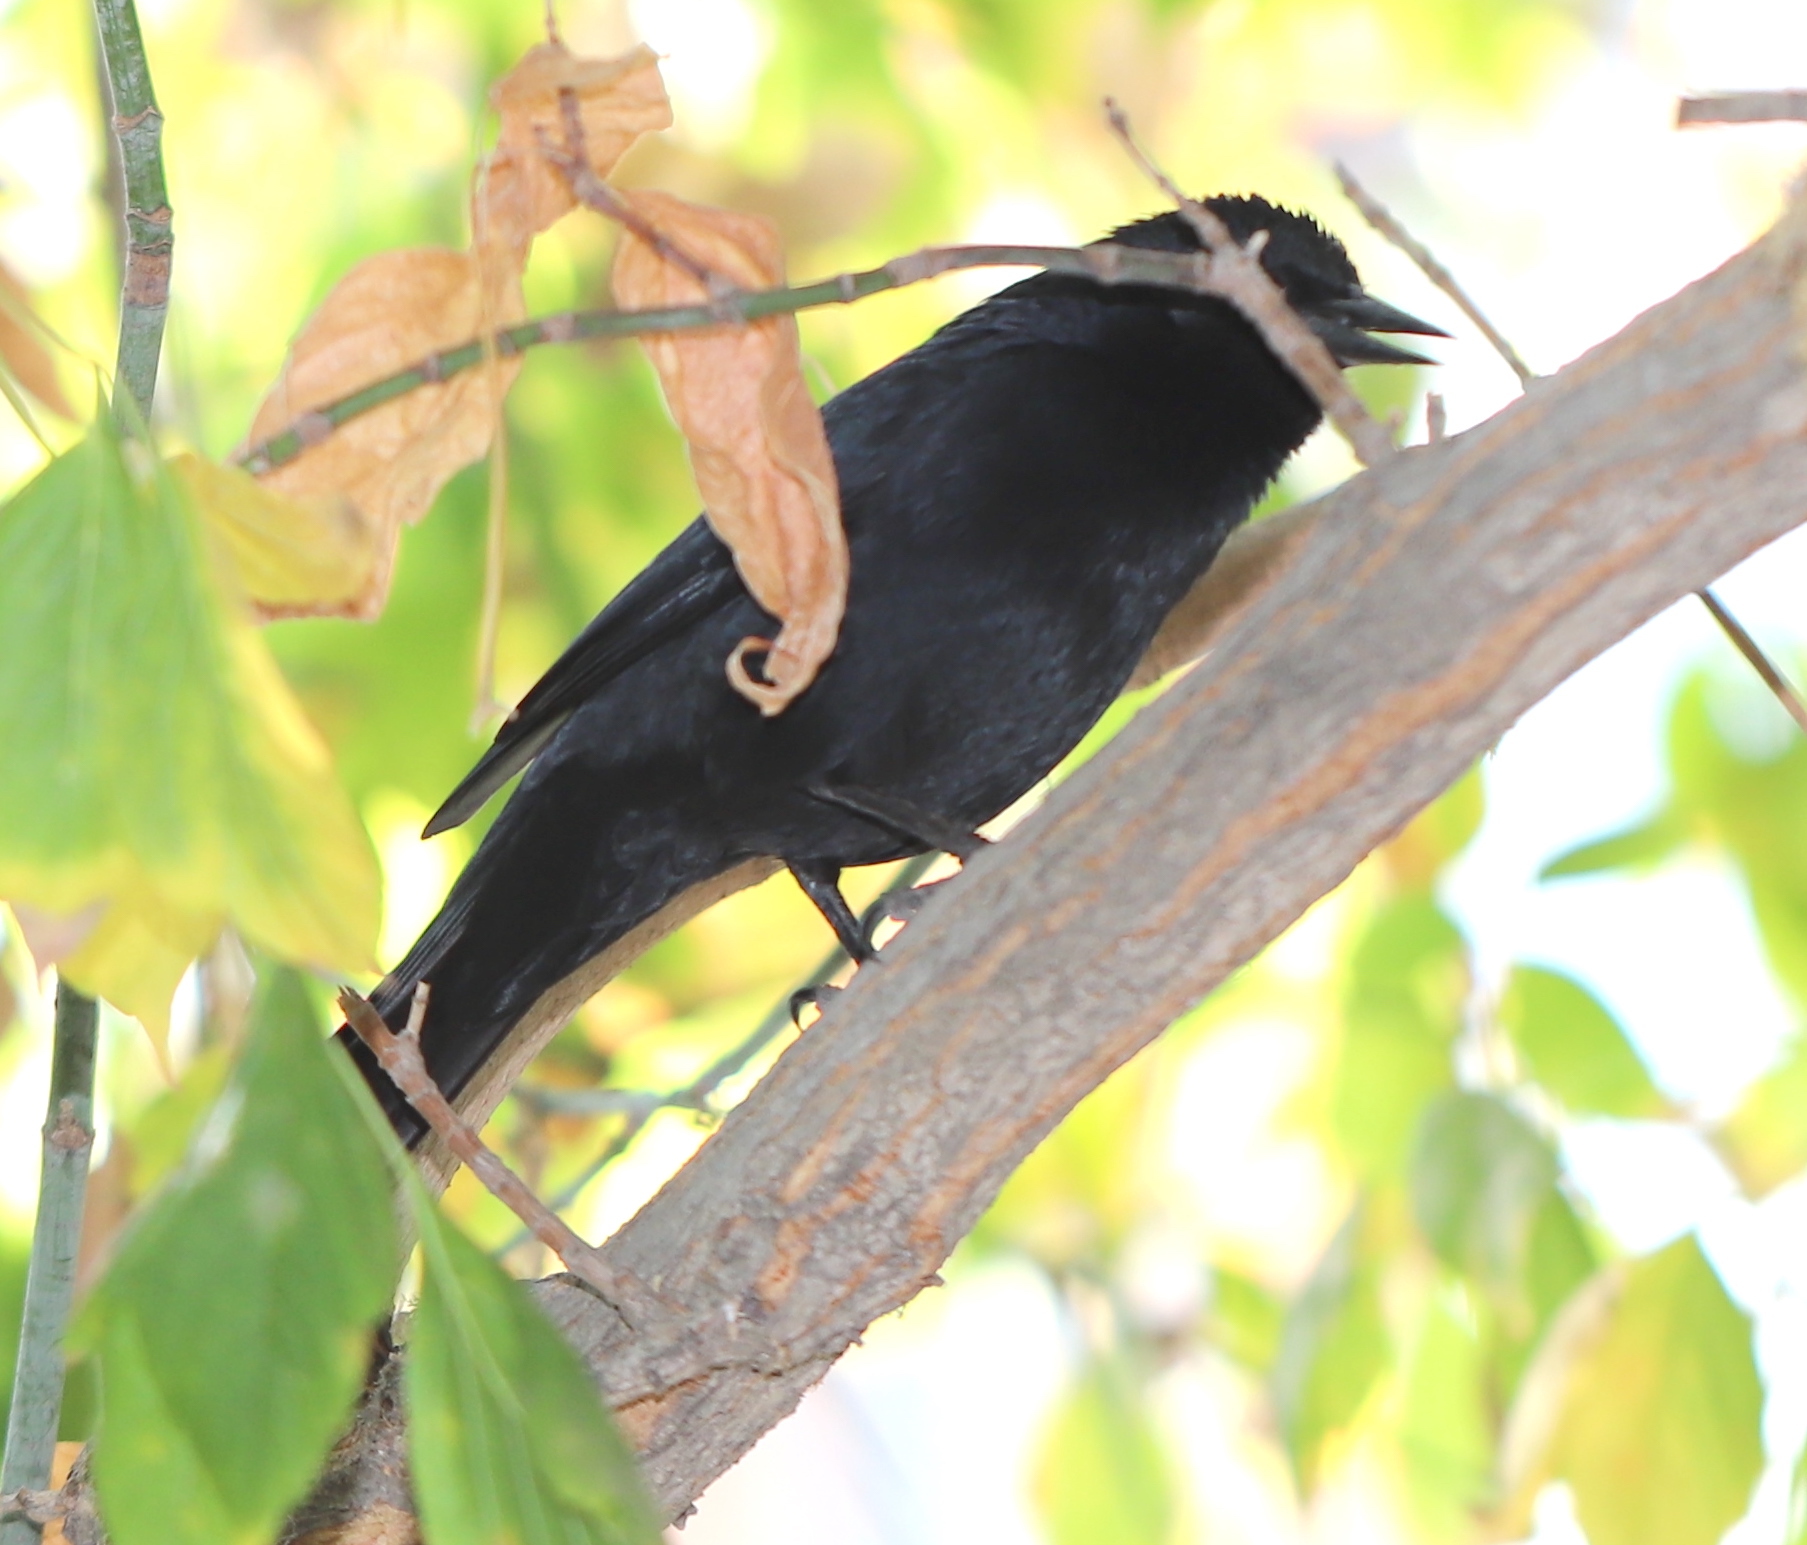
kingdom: Animalia
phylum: Chordata
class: Aves
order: Passeriformes
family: Icteridae
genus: Curaeus
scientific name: Curaeus curaeus
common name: Austral blackbird
